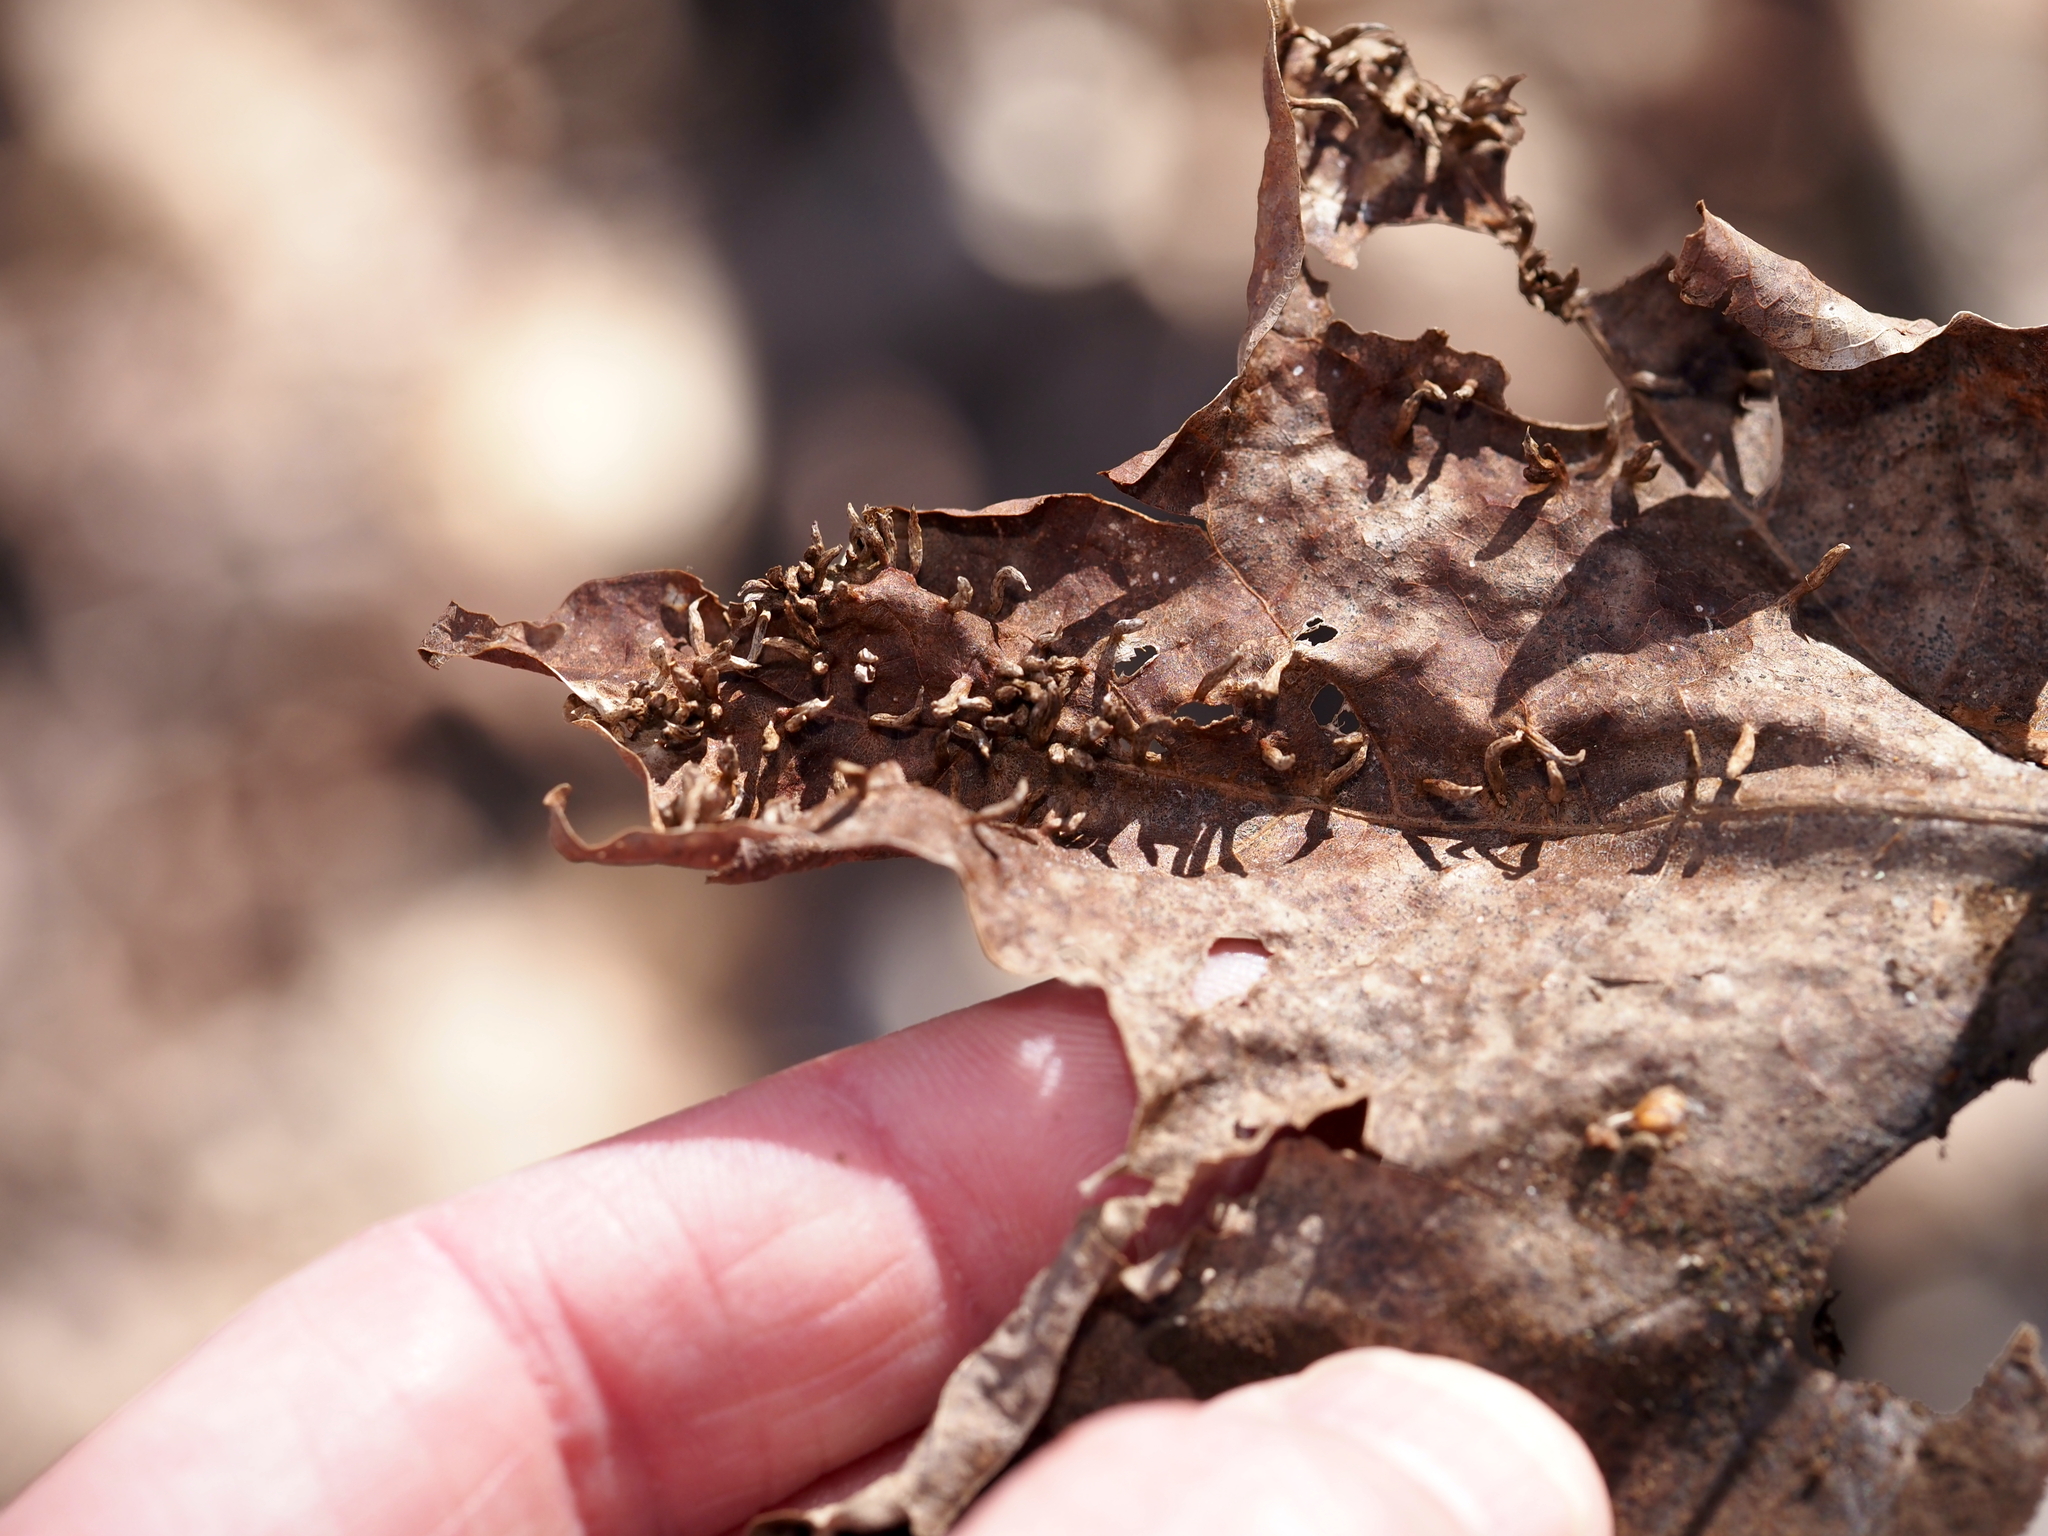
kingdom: Animalia
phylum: Arthropoda
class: Arachnida
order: Trombidiformes
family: Eriophyidae
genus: Vasates
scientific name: Vasates aceriscrumena
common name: Maple spindle gall mite
